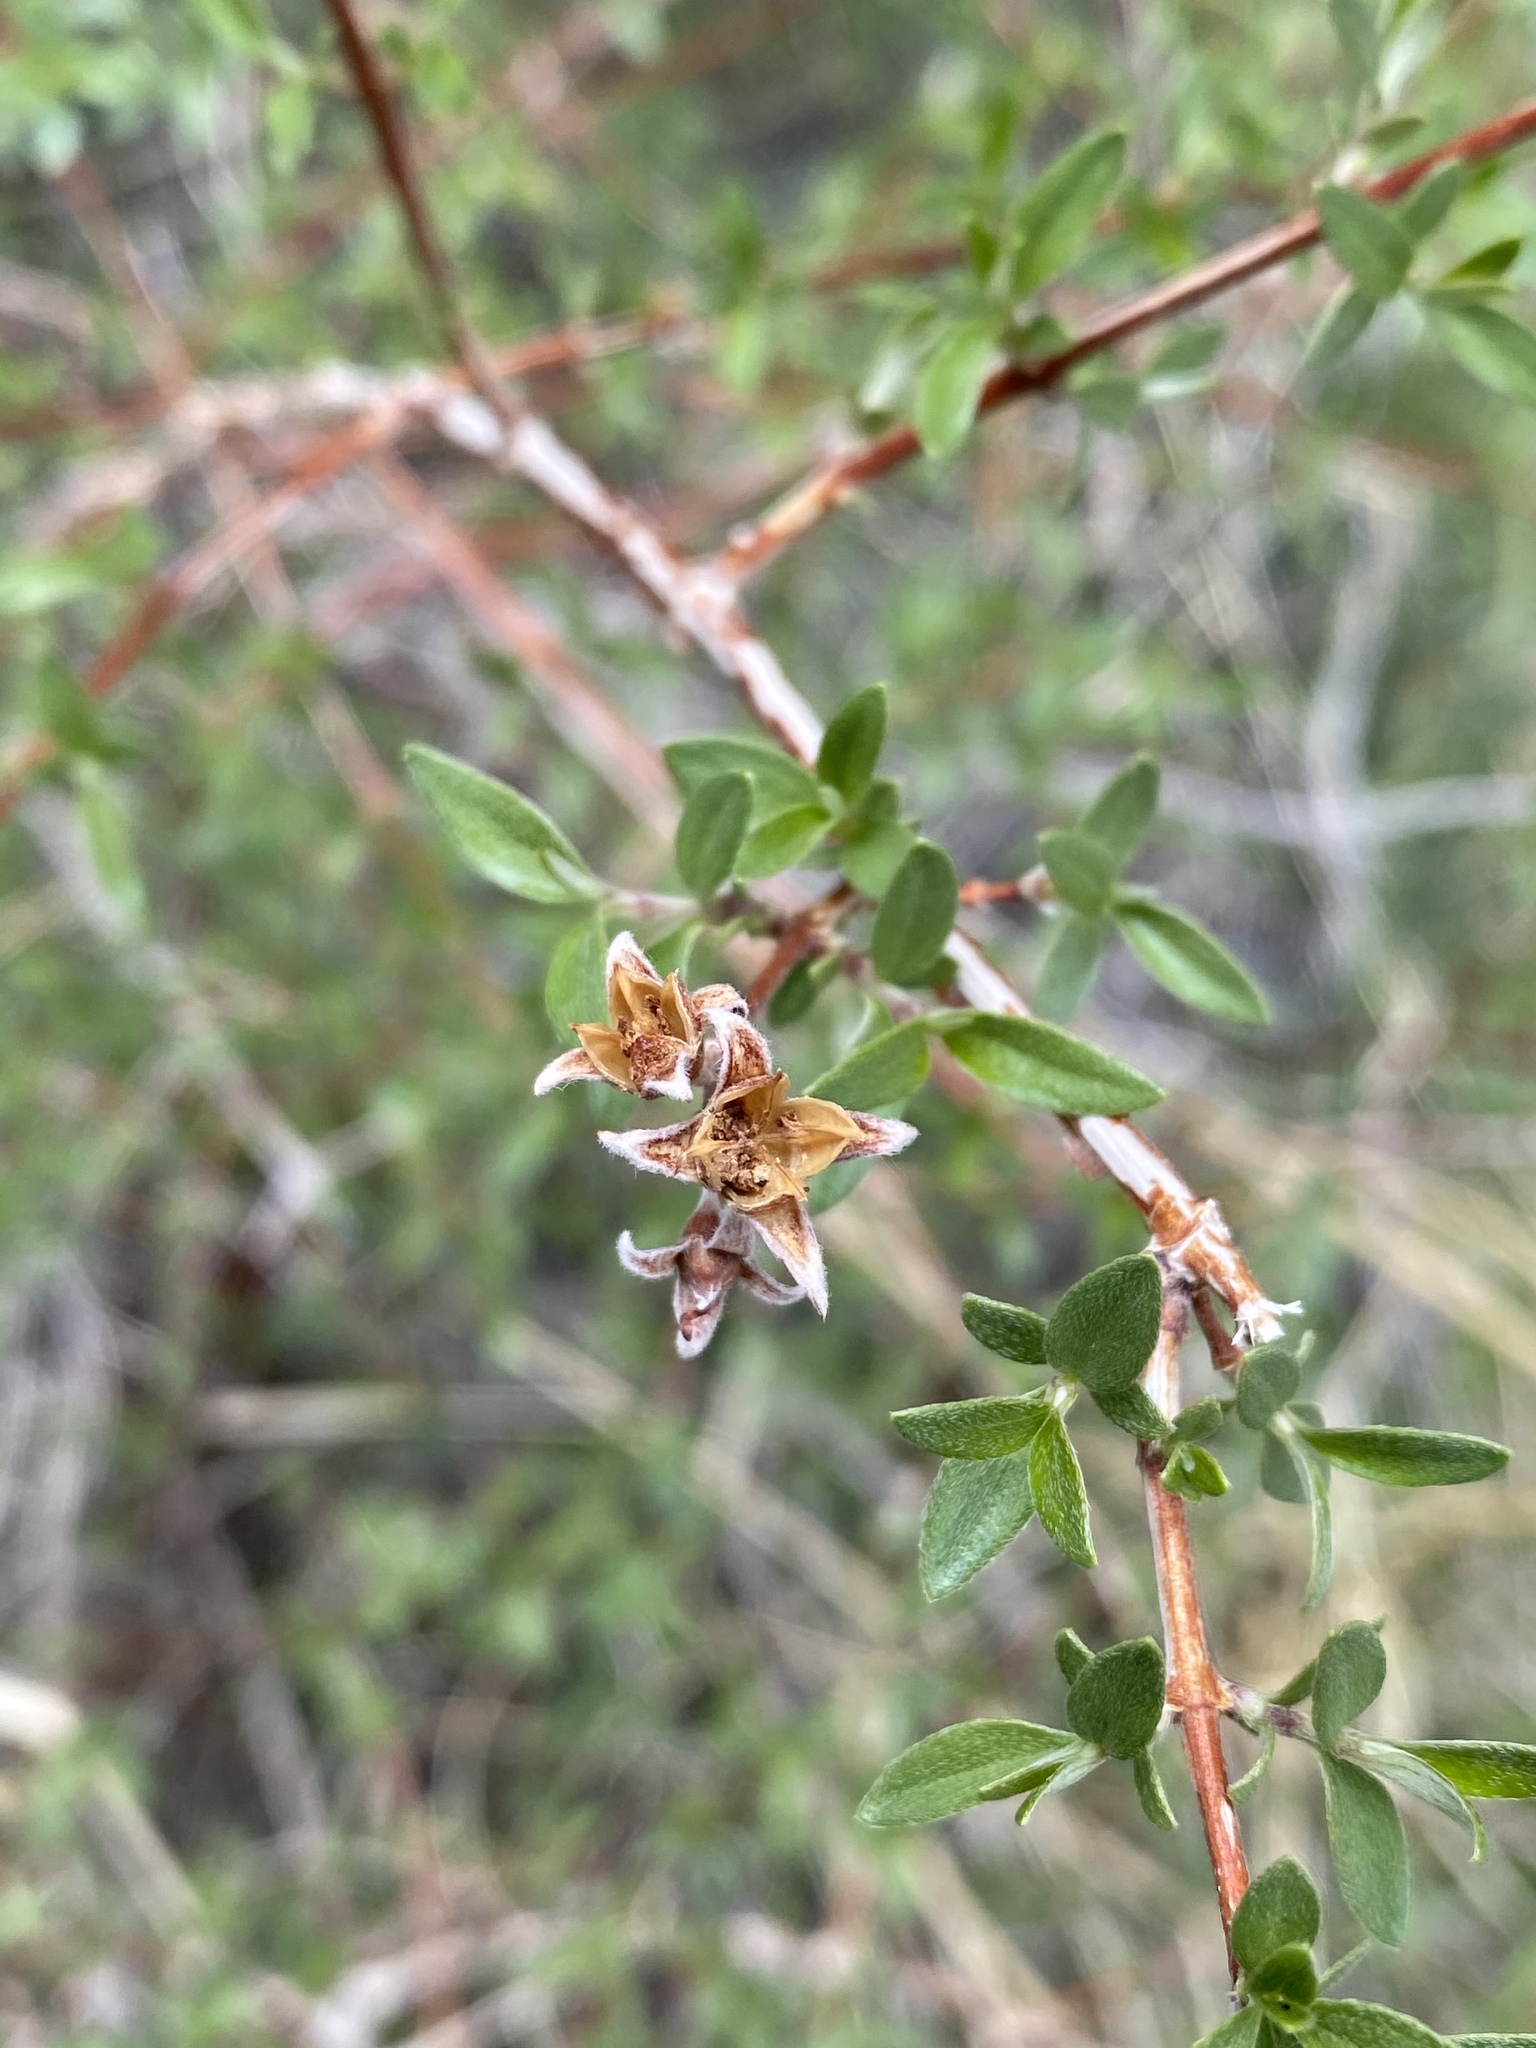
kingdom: Plantae
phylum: Tracheophyta
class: Magnoliopsida
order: Cornales
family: Hydrangeaceae
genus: Philadelphus
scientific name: Philadelphus microphyllus
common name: Desert mock orange
